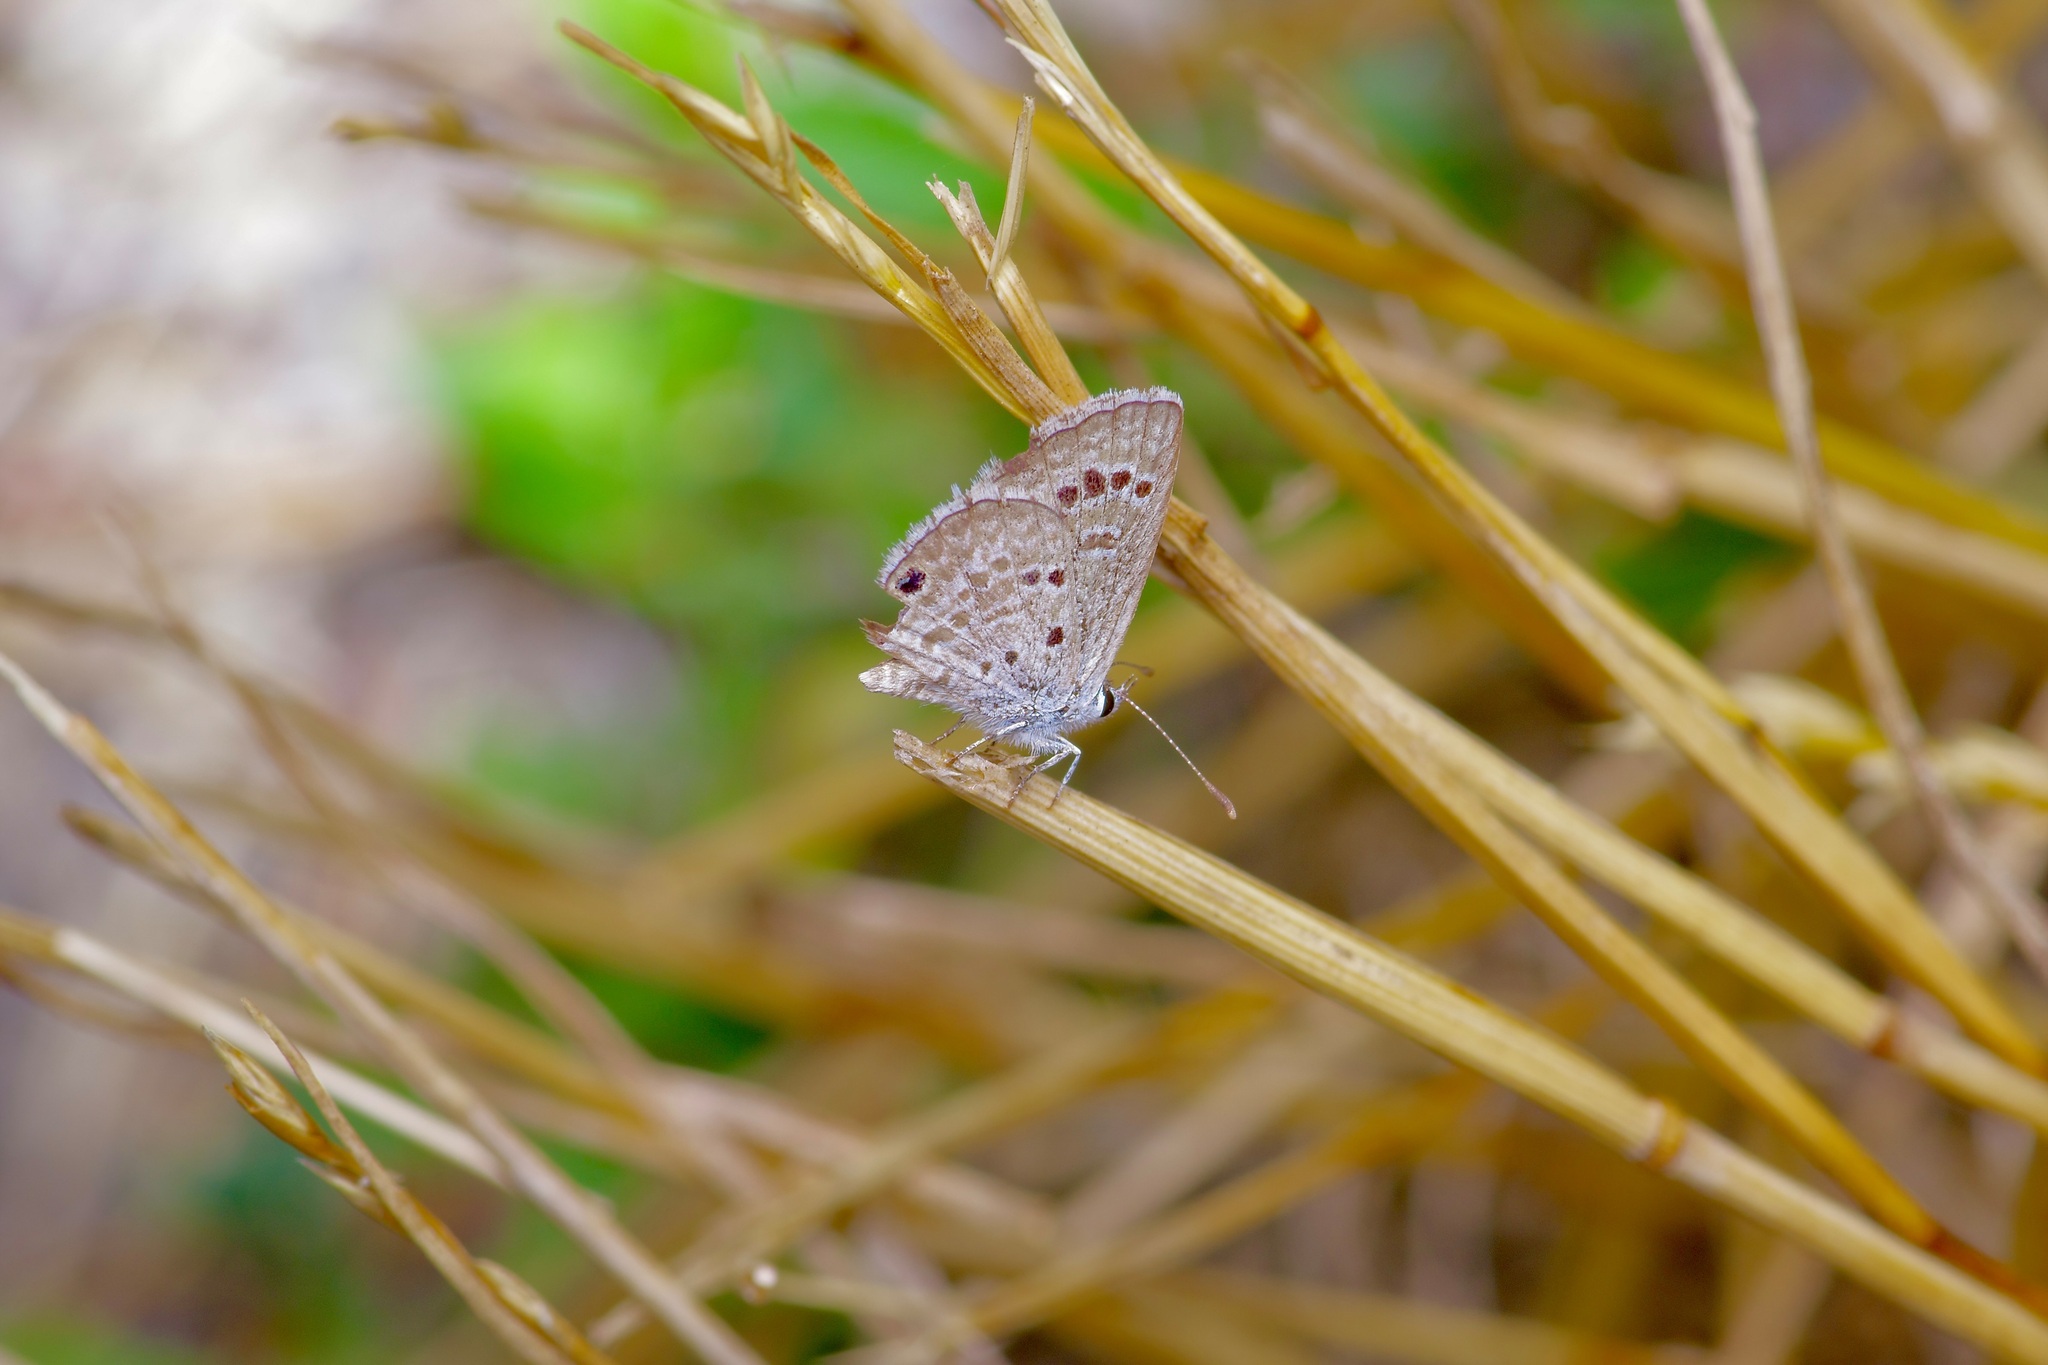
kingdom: Animalia
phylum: Arthropoda
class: Insecta
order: Lepidoptera
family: Lycaenidae
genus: Echinargus
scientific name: Echinargus isola
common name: Reakirt's blue
